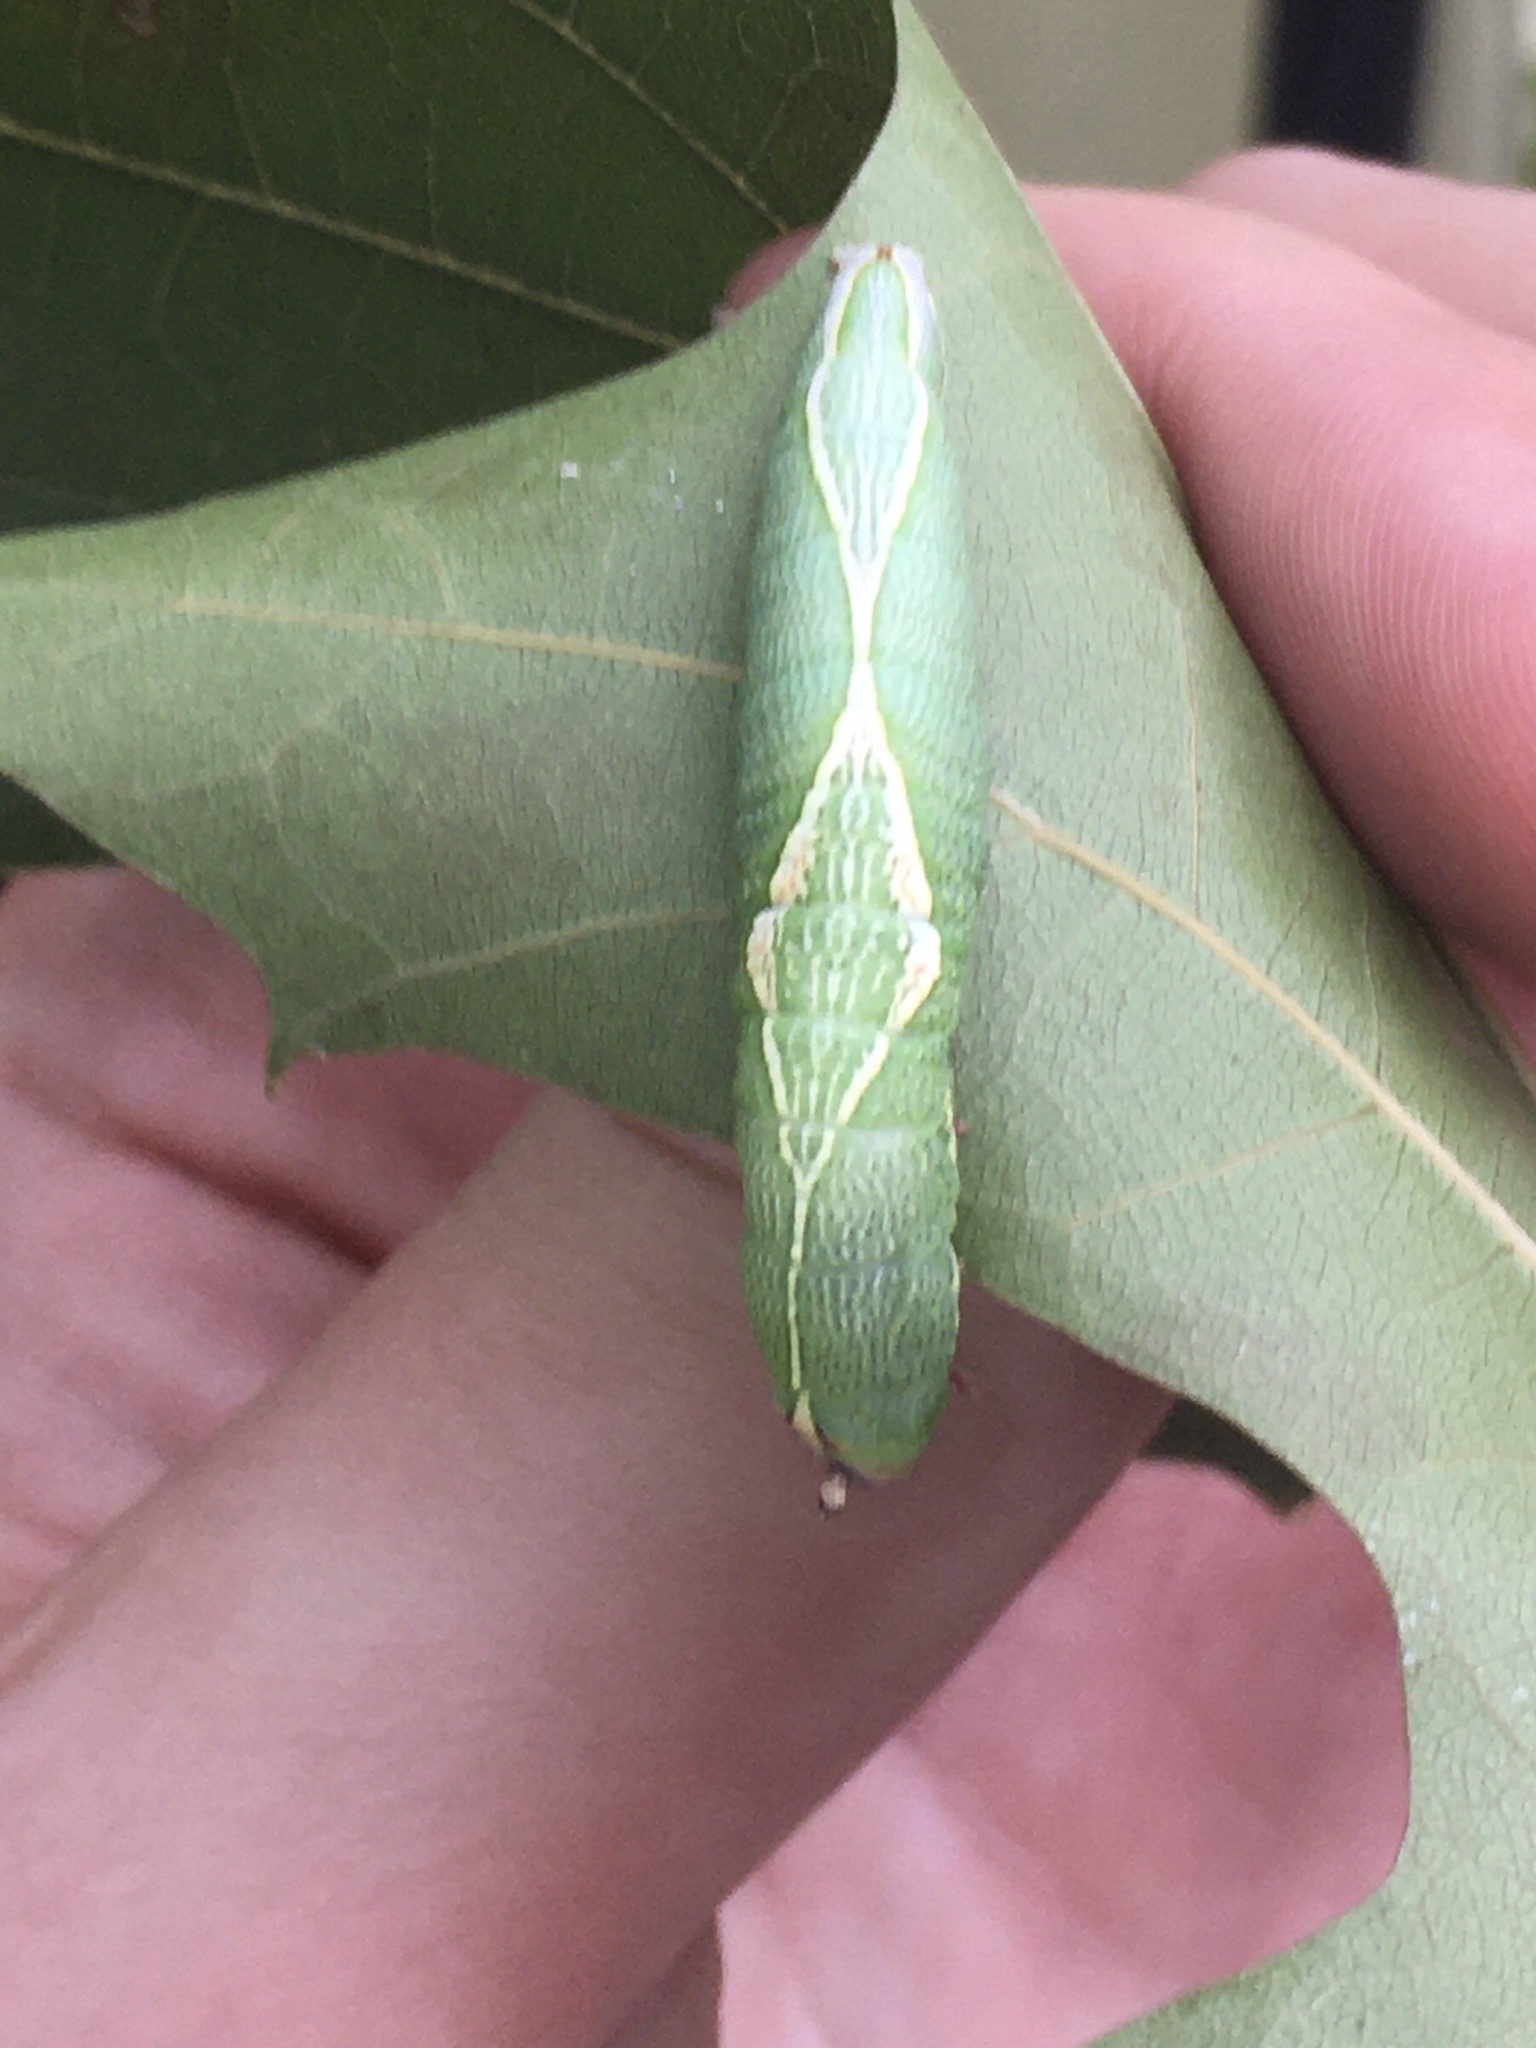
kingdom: Animalia
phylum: Arthropoda
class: Insecta
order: Lepidoptera
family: Notodontidae
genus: Heterocampa
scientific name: Heterocampa obliqua
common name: Oblique heterocampa
